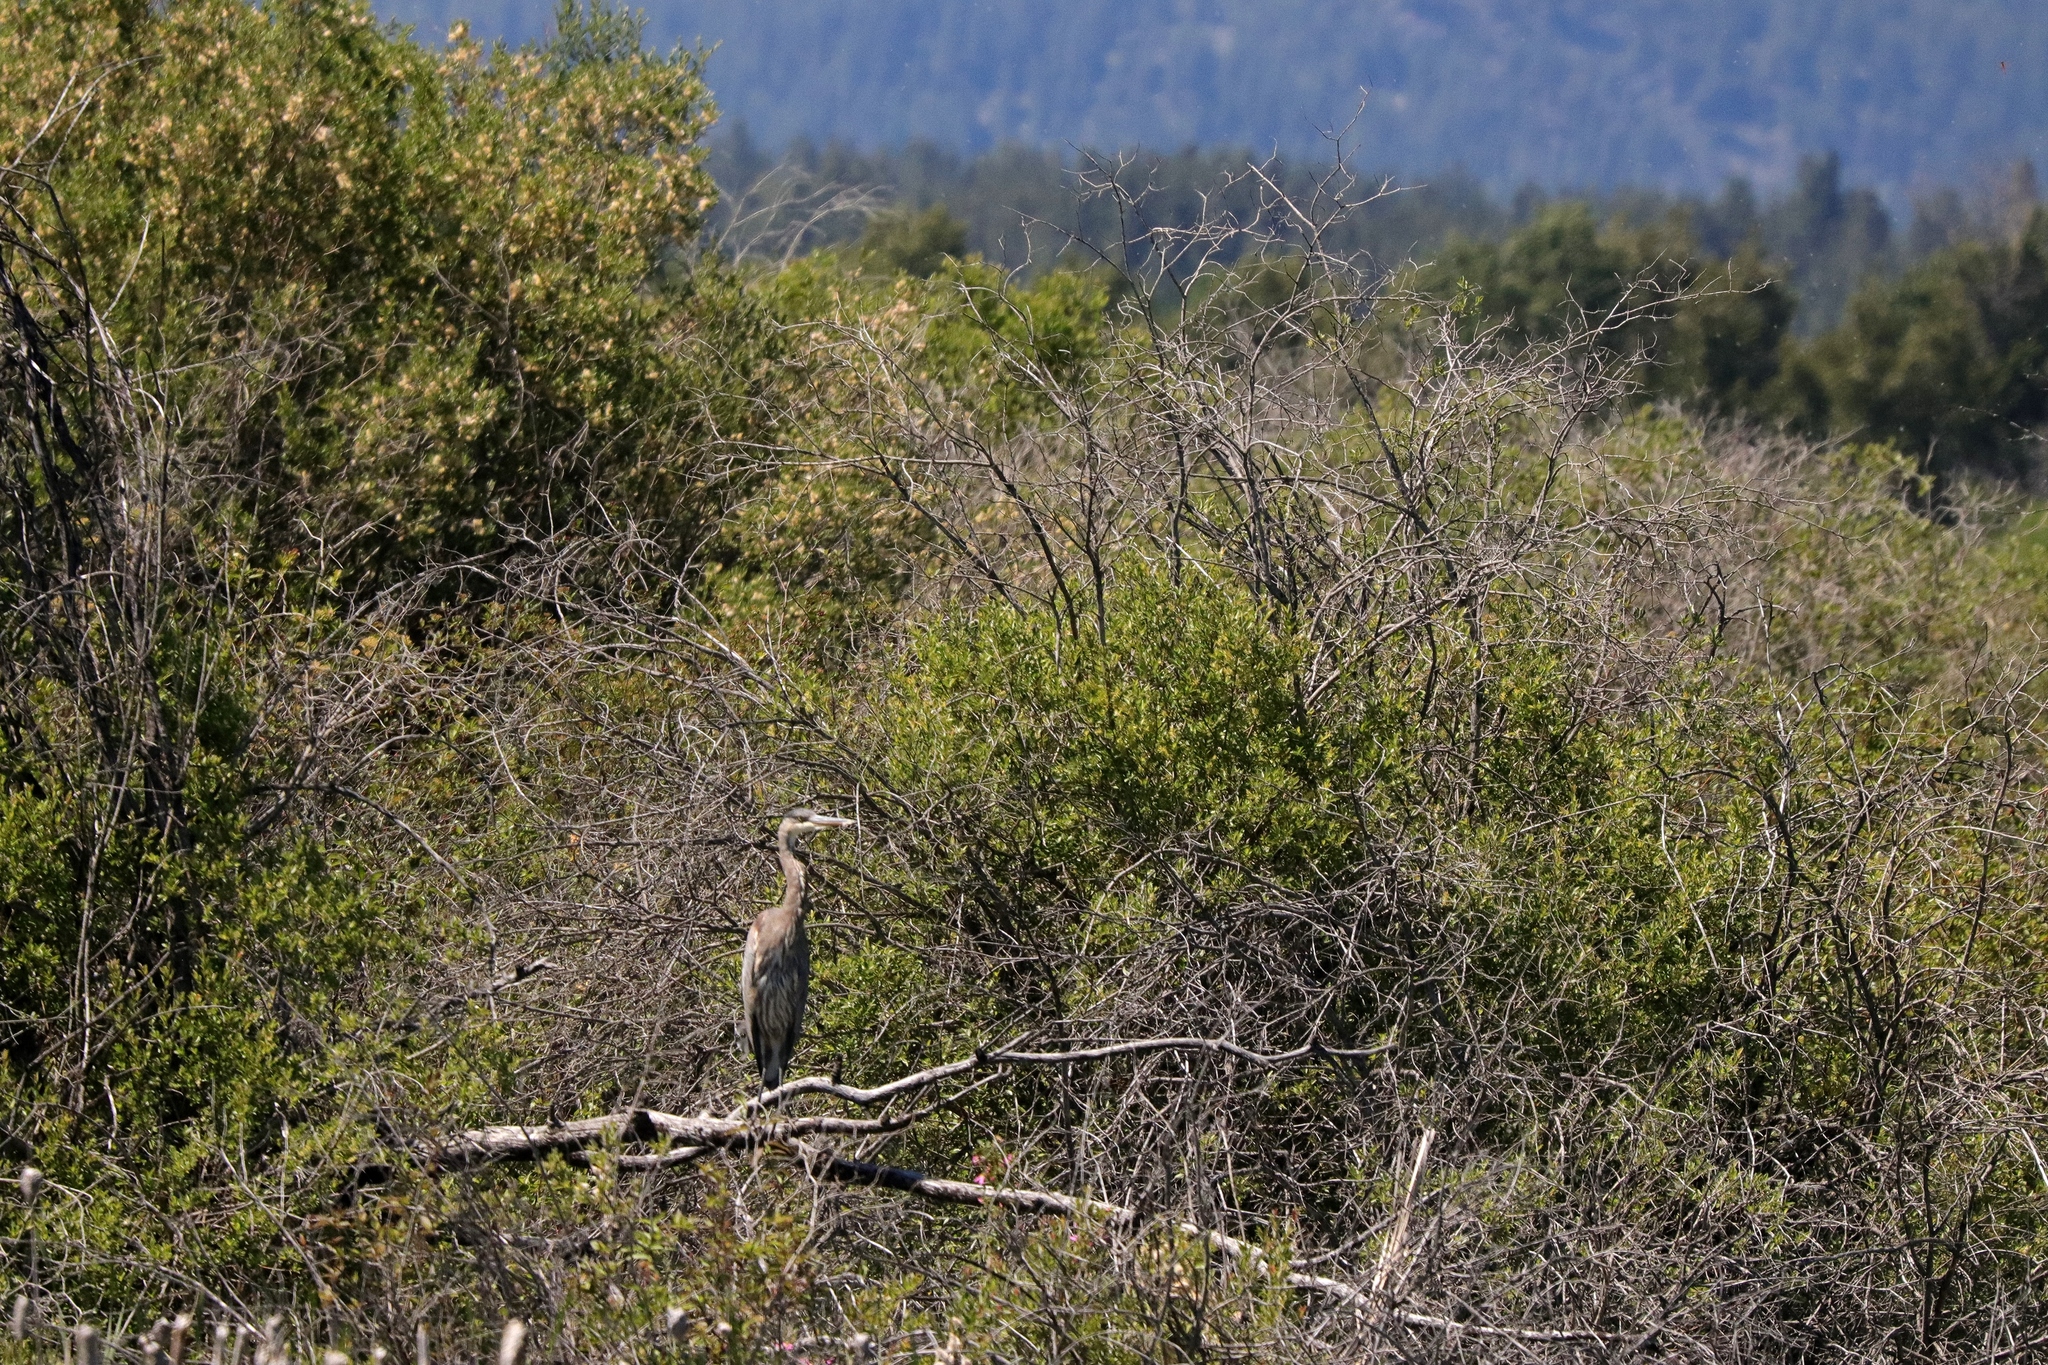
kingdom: Animalia
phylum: Chordata
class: Aves
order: Pelecaniformes
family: Ardeidae
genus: Ardea
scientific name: Ardea herodias
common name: Great blue heron
